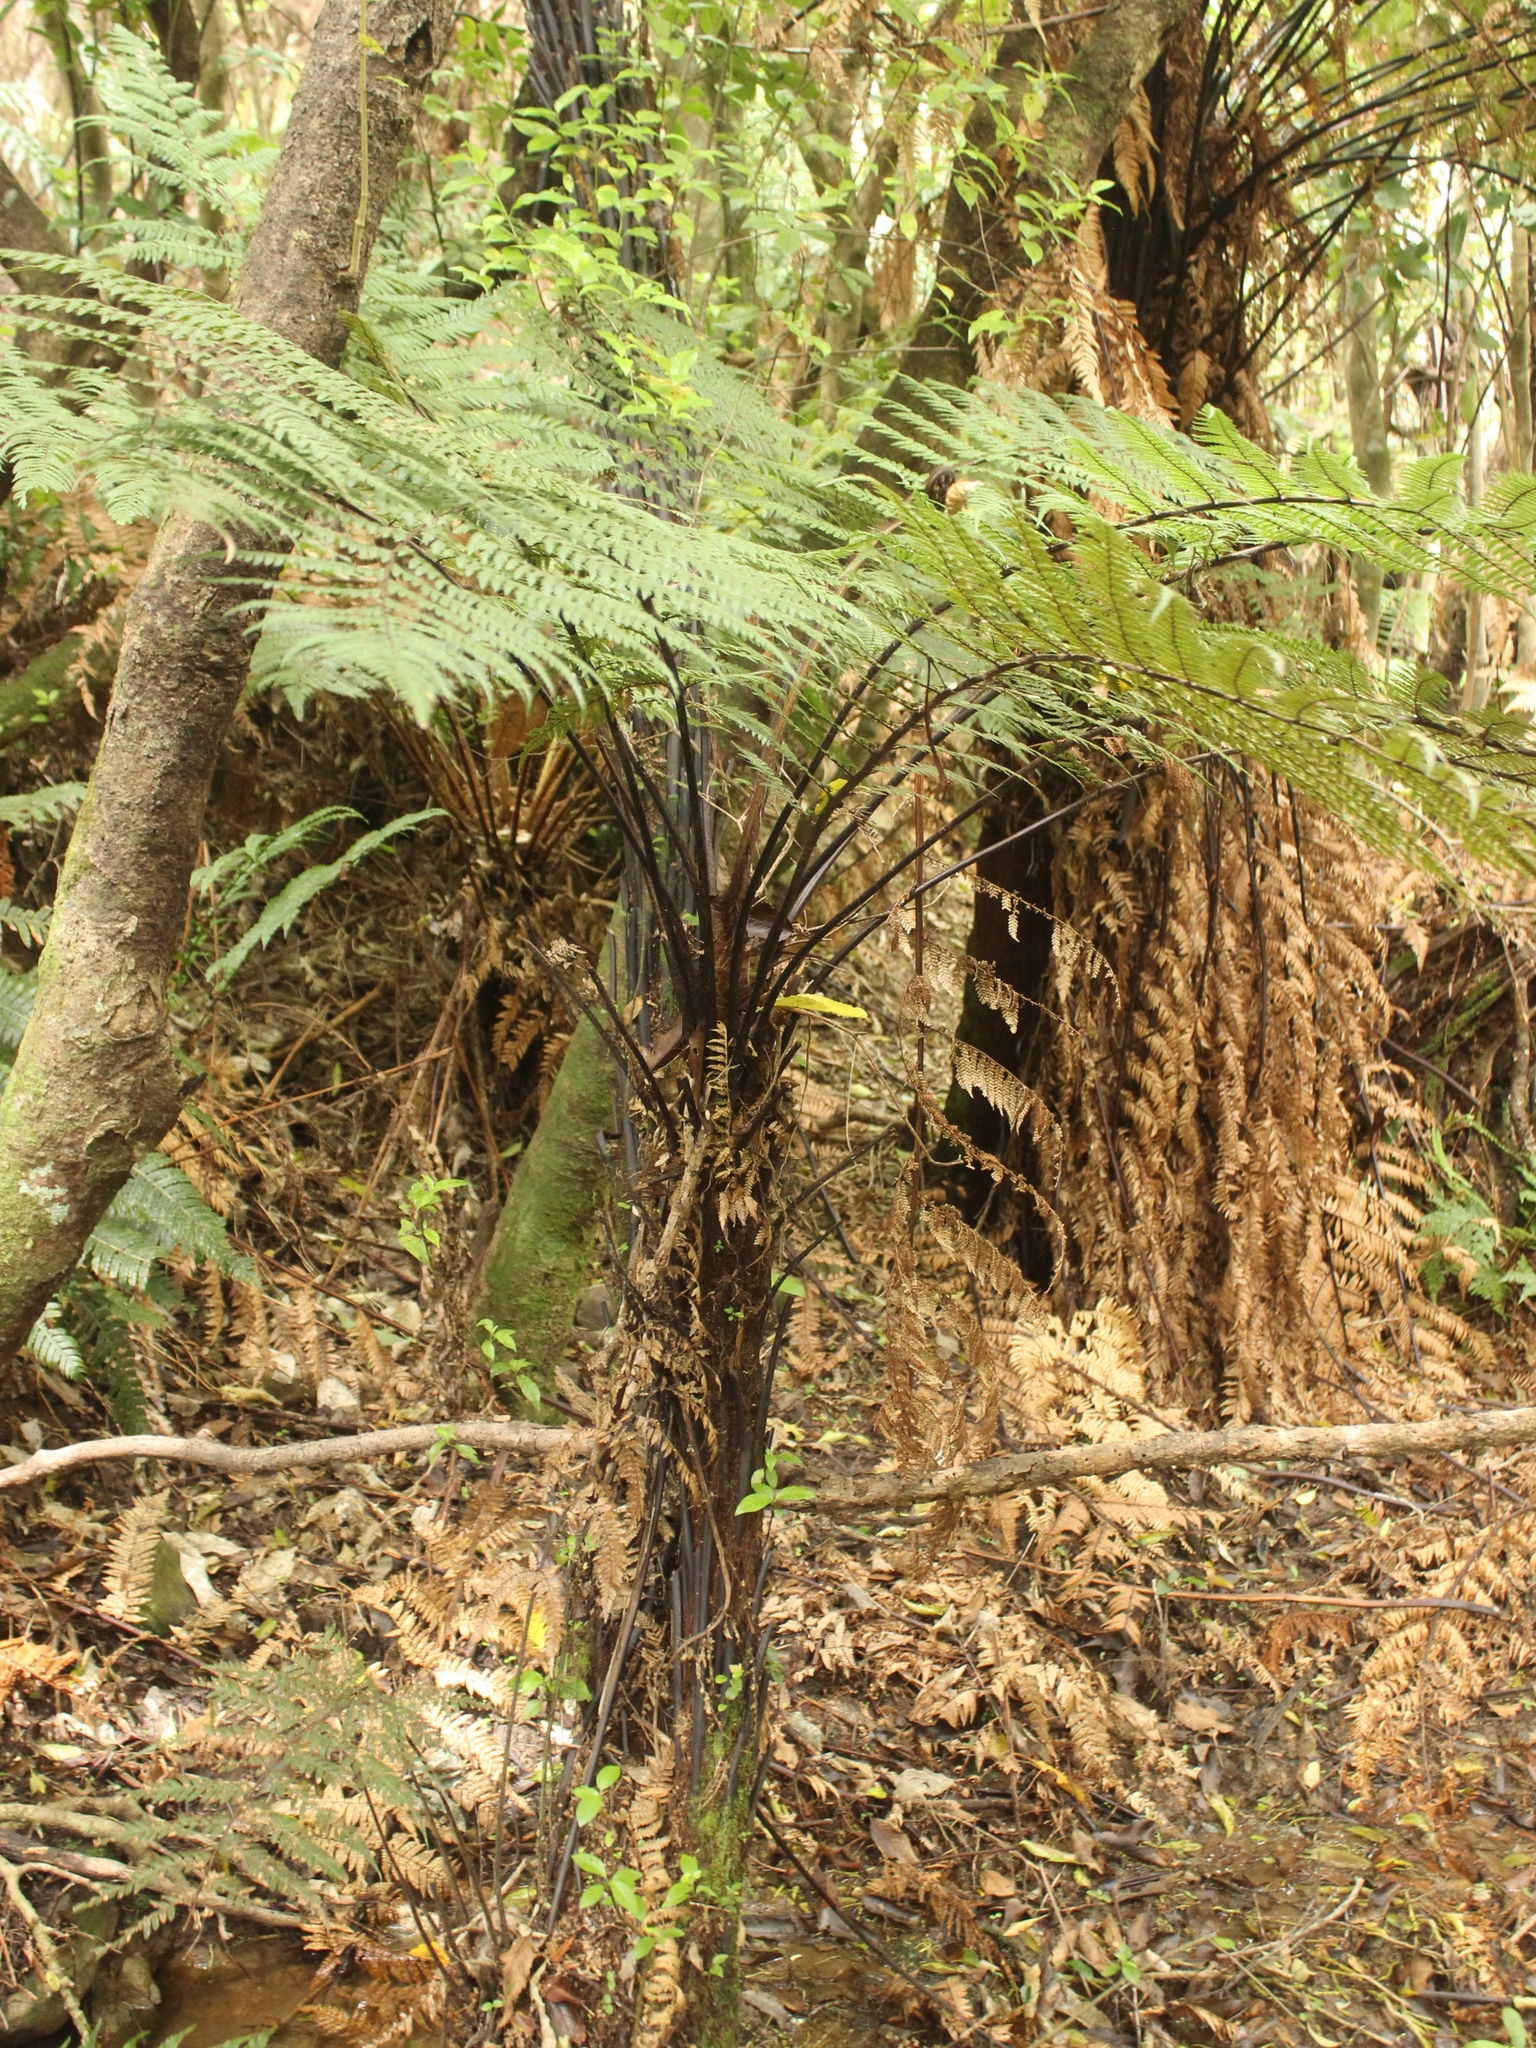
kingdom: Plantae
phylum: Tracheophyta
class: Polypodiopsida
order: Cyatheales
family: Dicksoniaceae
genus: Dicksonia
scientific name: Dicksonia squarrosa
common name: Hard treefern
